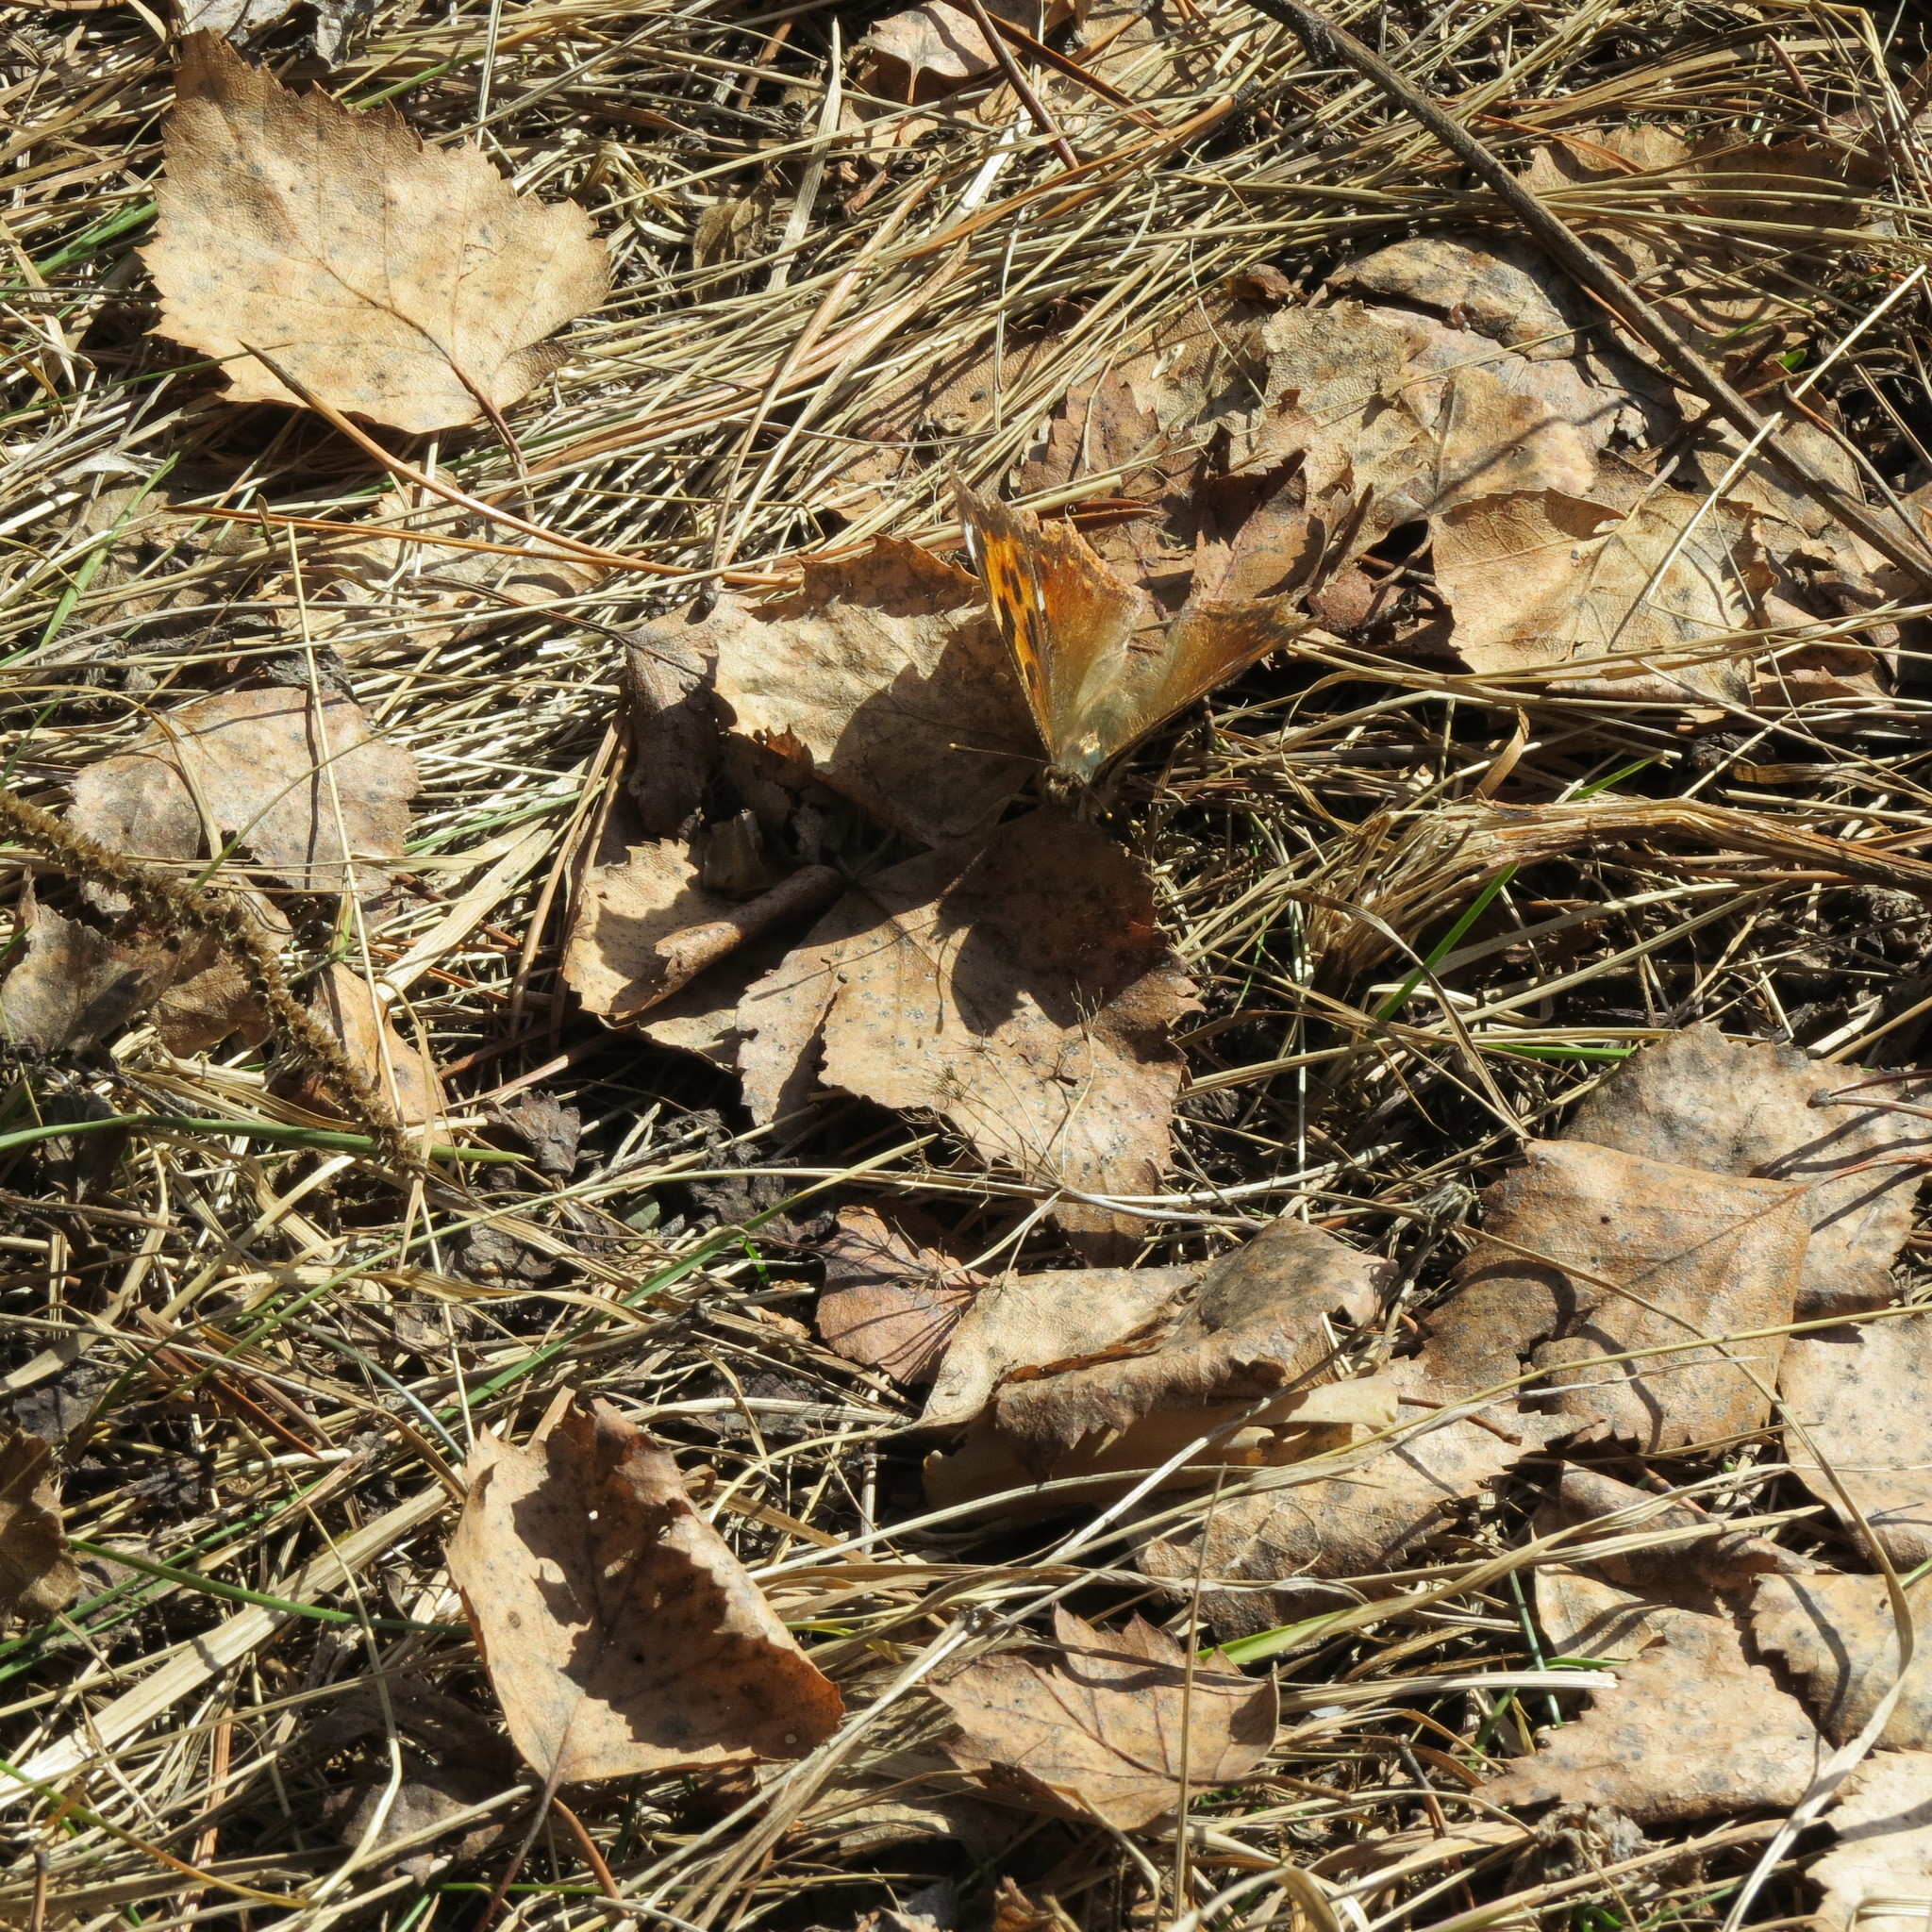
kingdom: Animalia
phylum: Arthropoda
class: Insecta
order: Lepidoptera
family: Nymphalidae
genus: Polygonia
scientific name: Polygonia vaualbum
